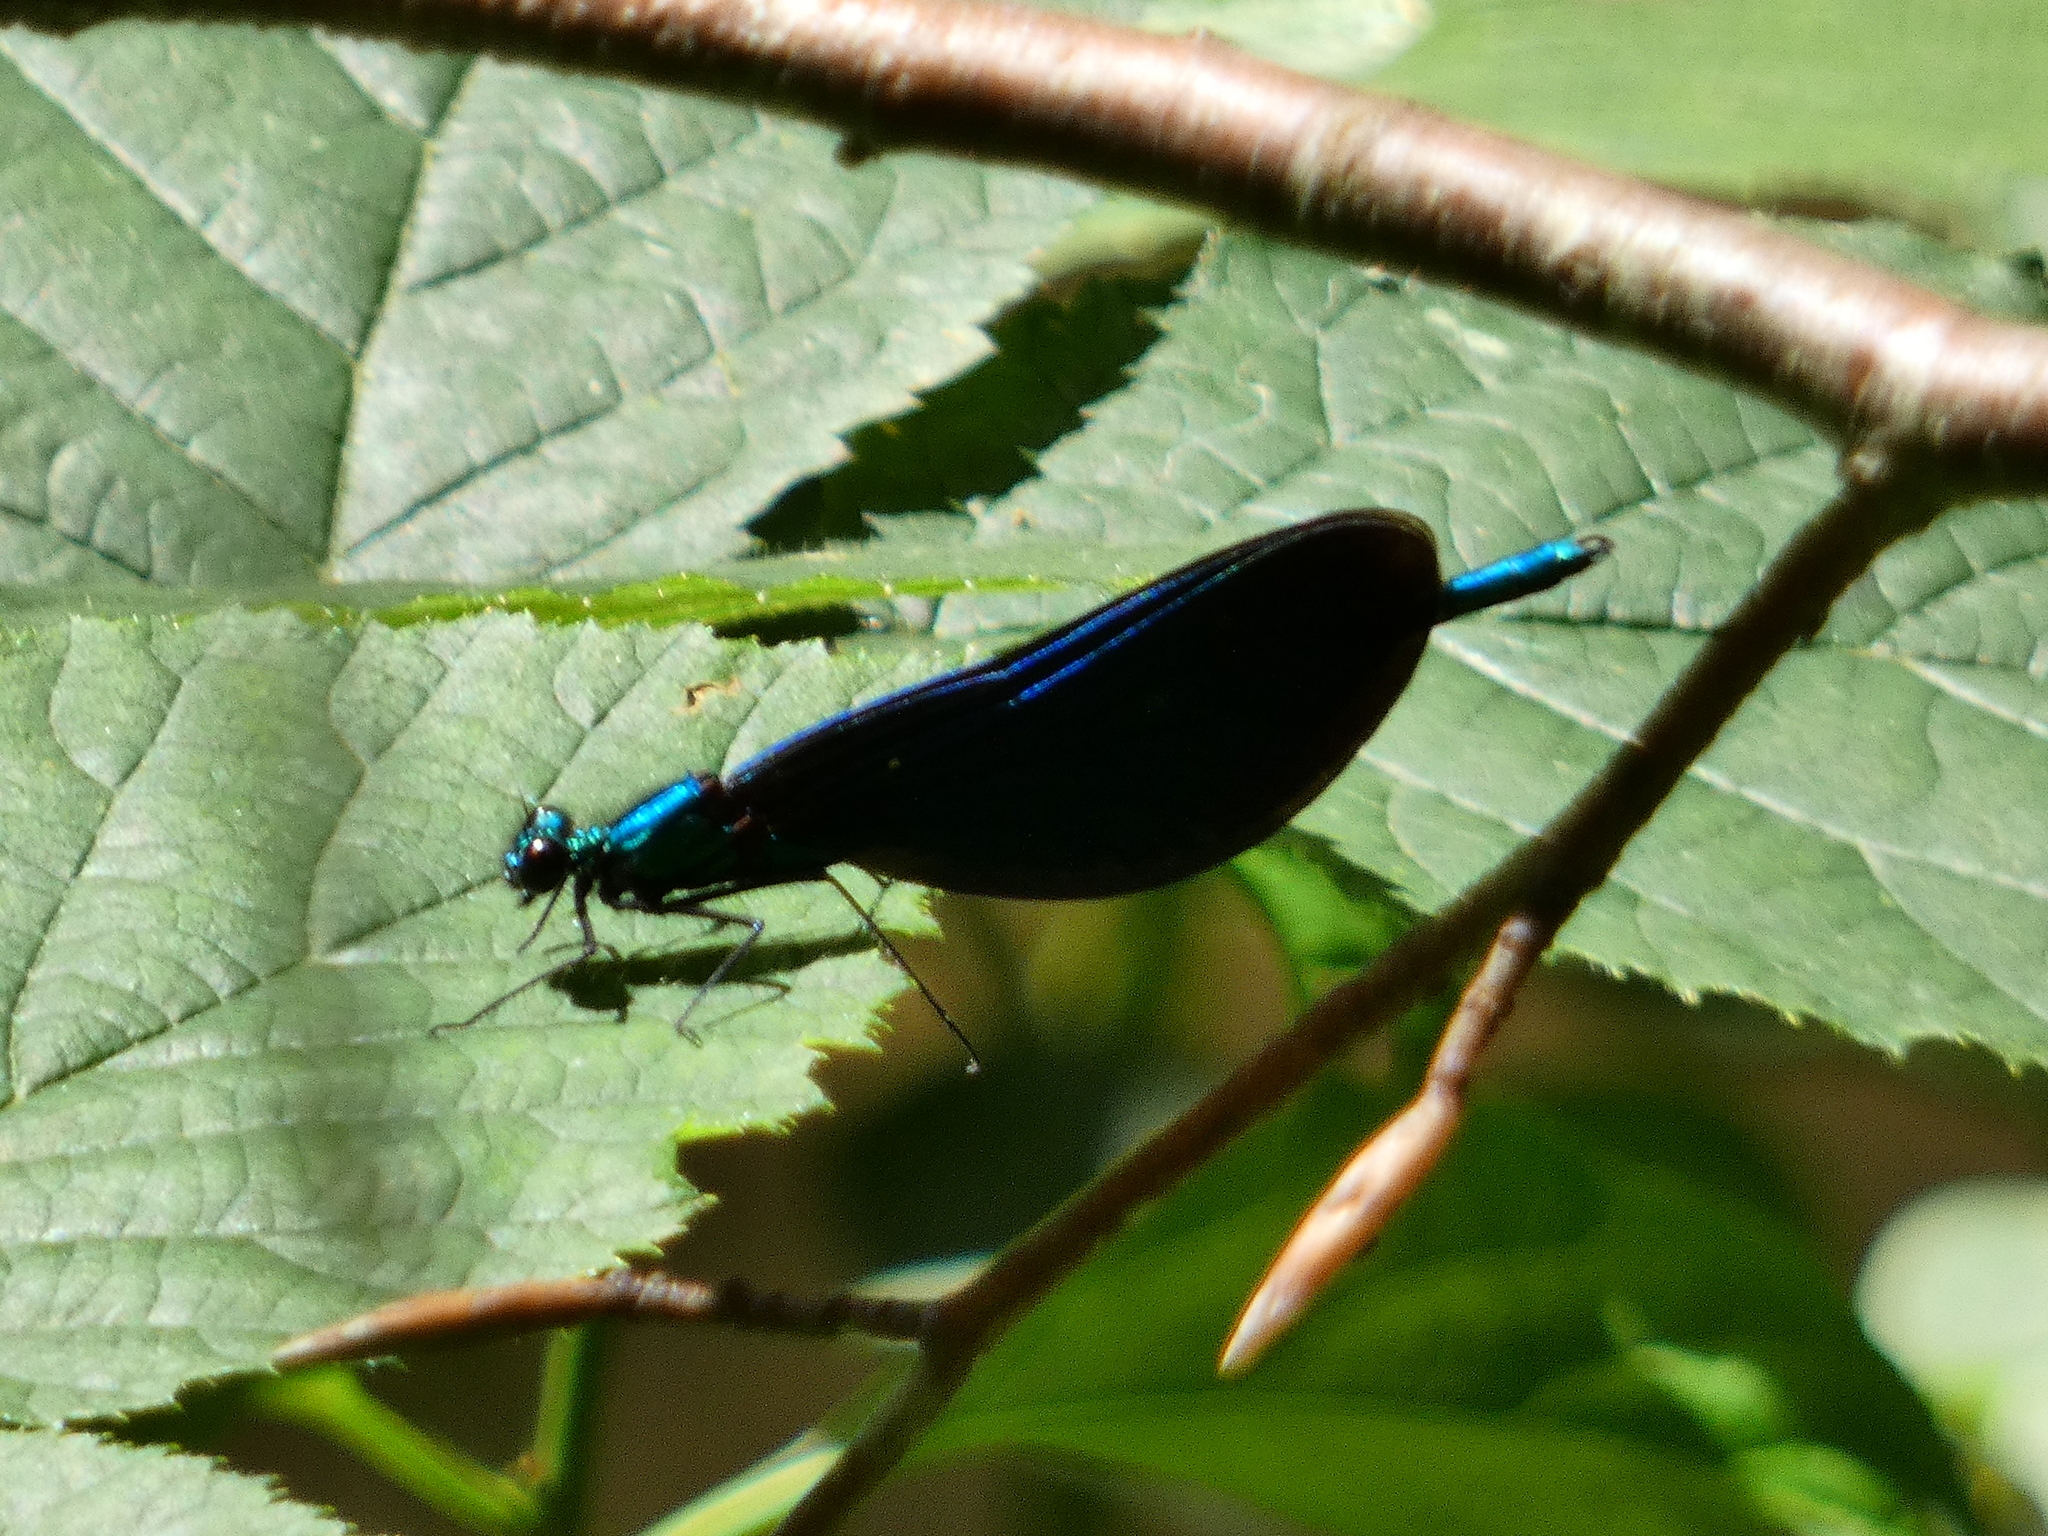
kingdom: Animalia
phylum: Arthropoda
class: Insecta
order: Odonata
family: Calopterygidae
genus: Calopteryx
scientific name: Calopteryx virgo
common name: Beautiful demoiselle
